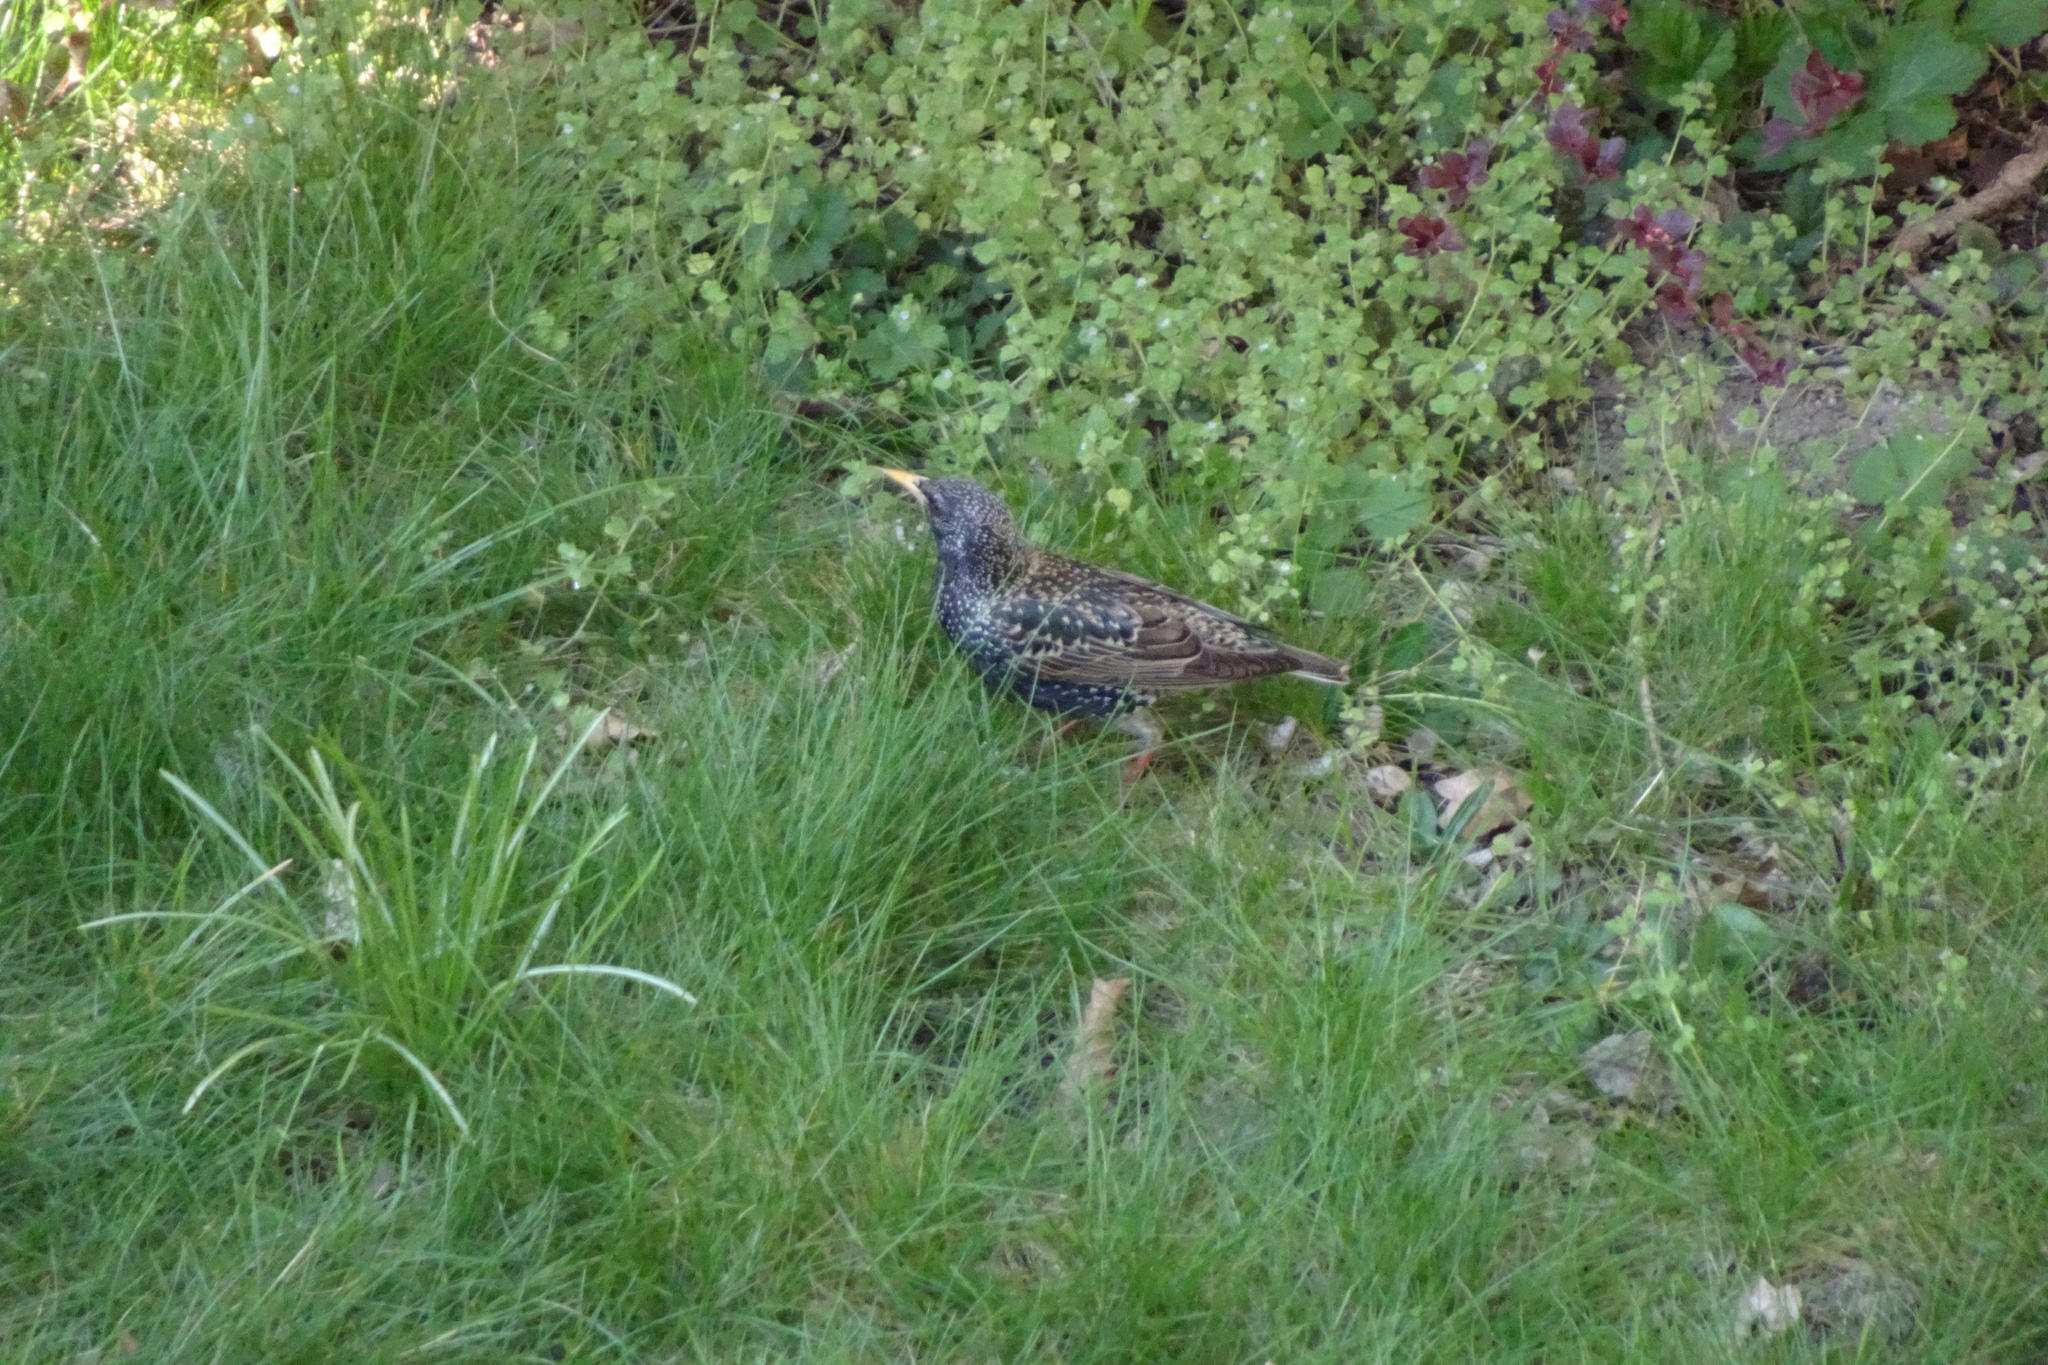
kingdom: Animalia
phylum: Chordata
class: Aves
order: Passeriformes
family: Sturnidae
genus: Sturnus
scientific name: Sturnus vulgaris
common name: Common starling
